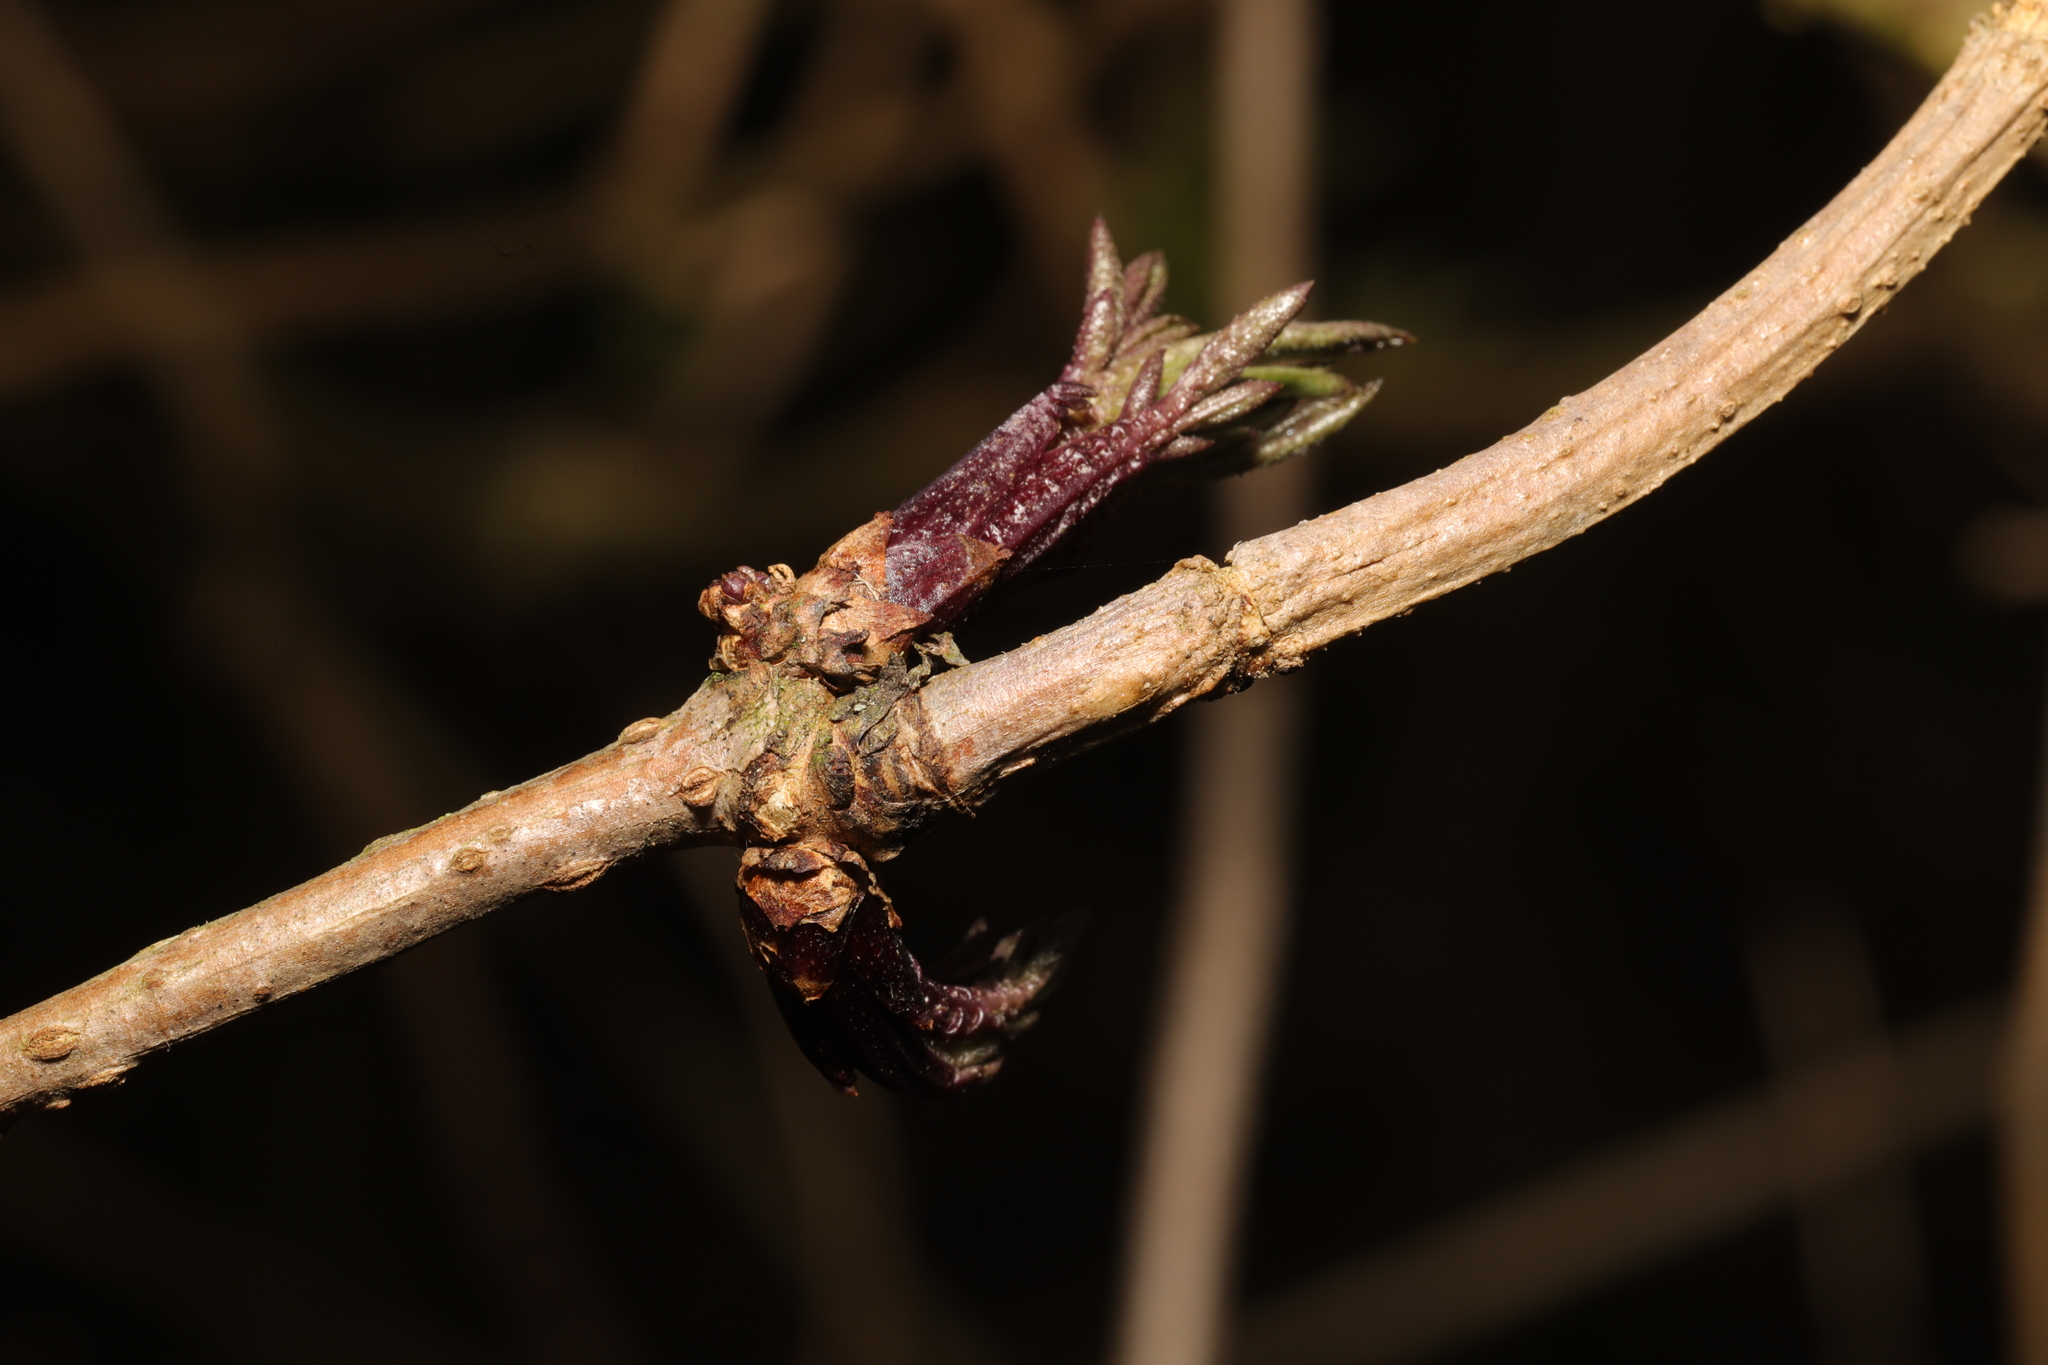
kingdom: Plantae
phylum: Tracheophyta
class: Magnoliopsida
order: Dipsacales
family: Viburnaceae
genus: Sambucus
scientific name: Sambucus nigra
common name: Elder
